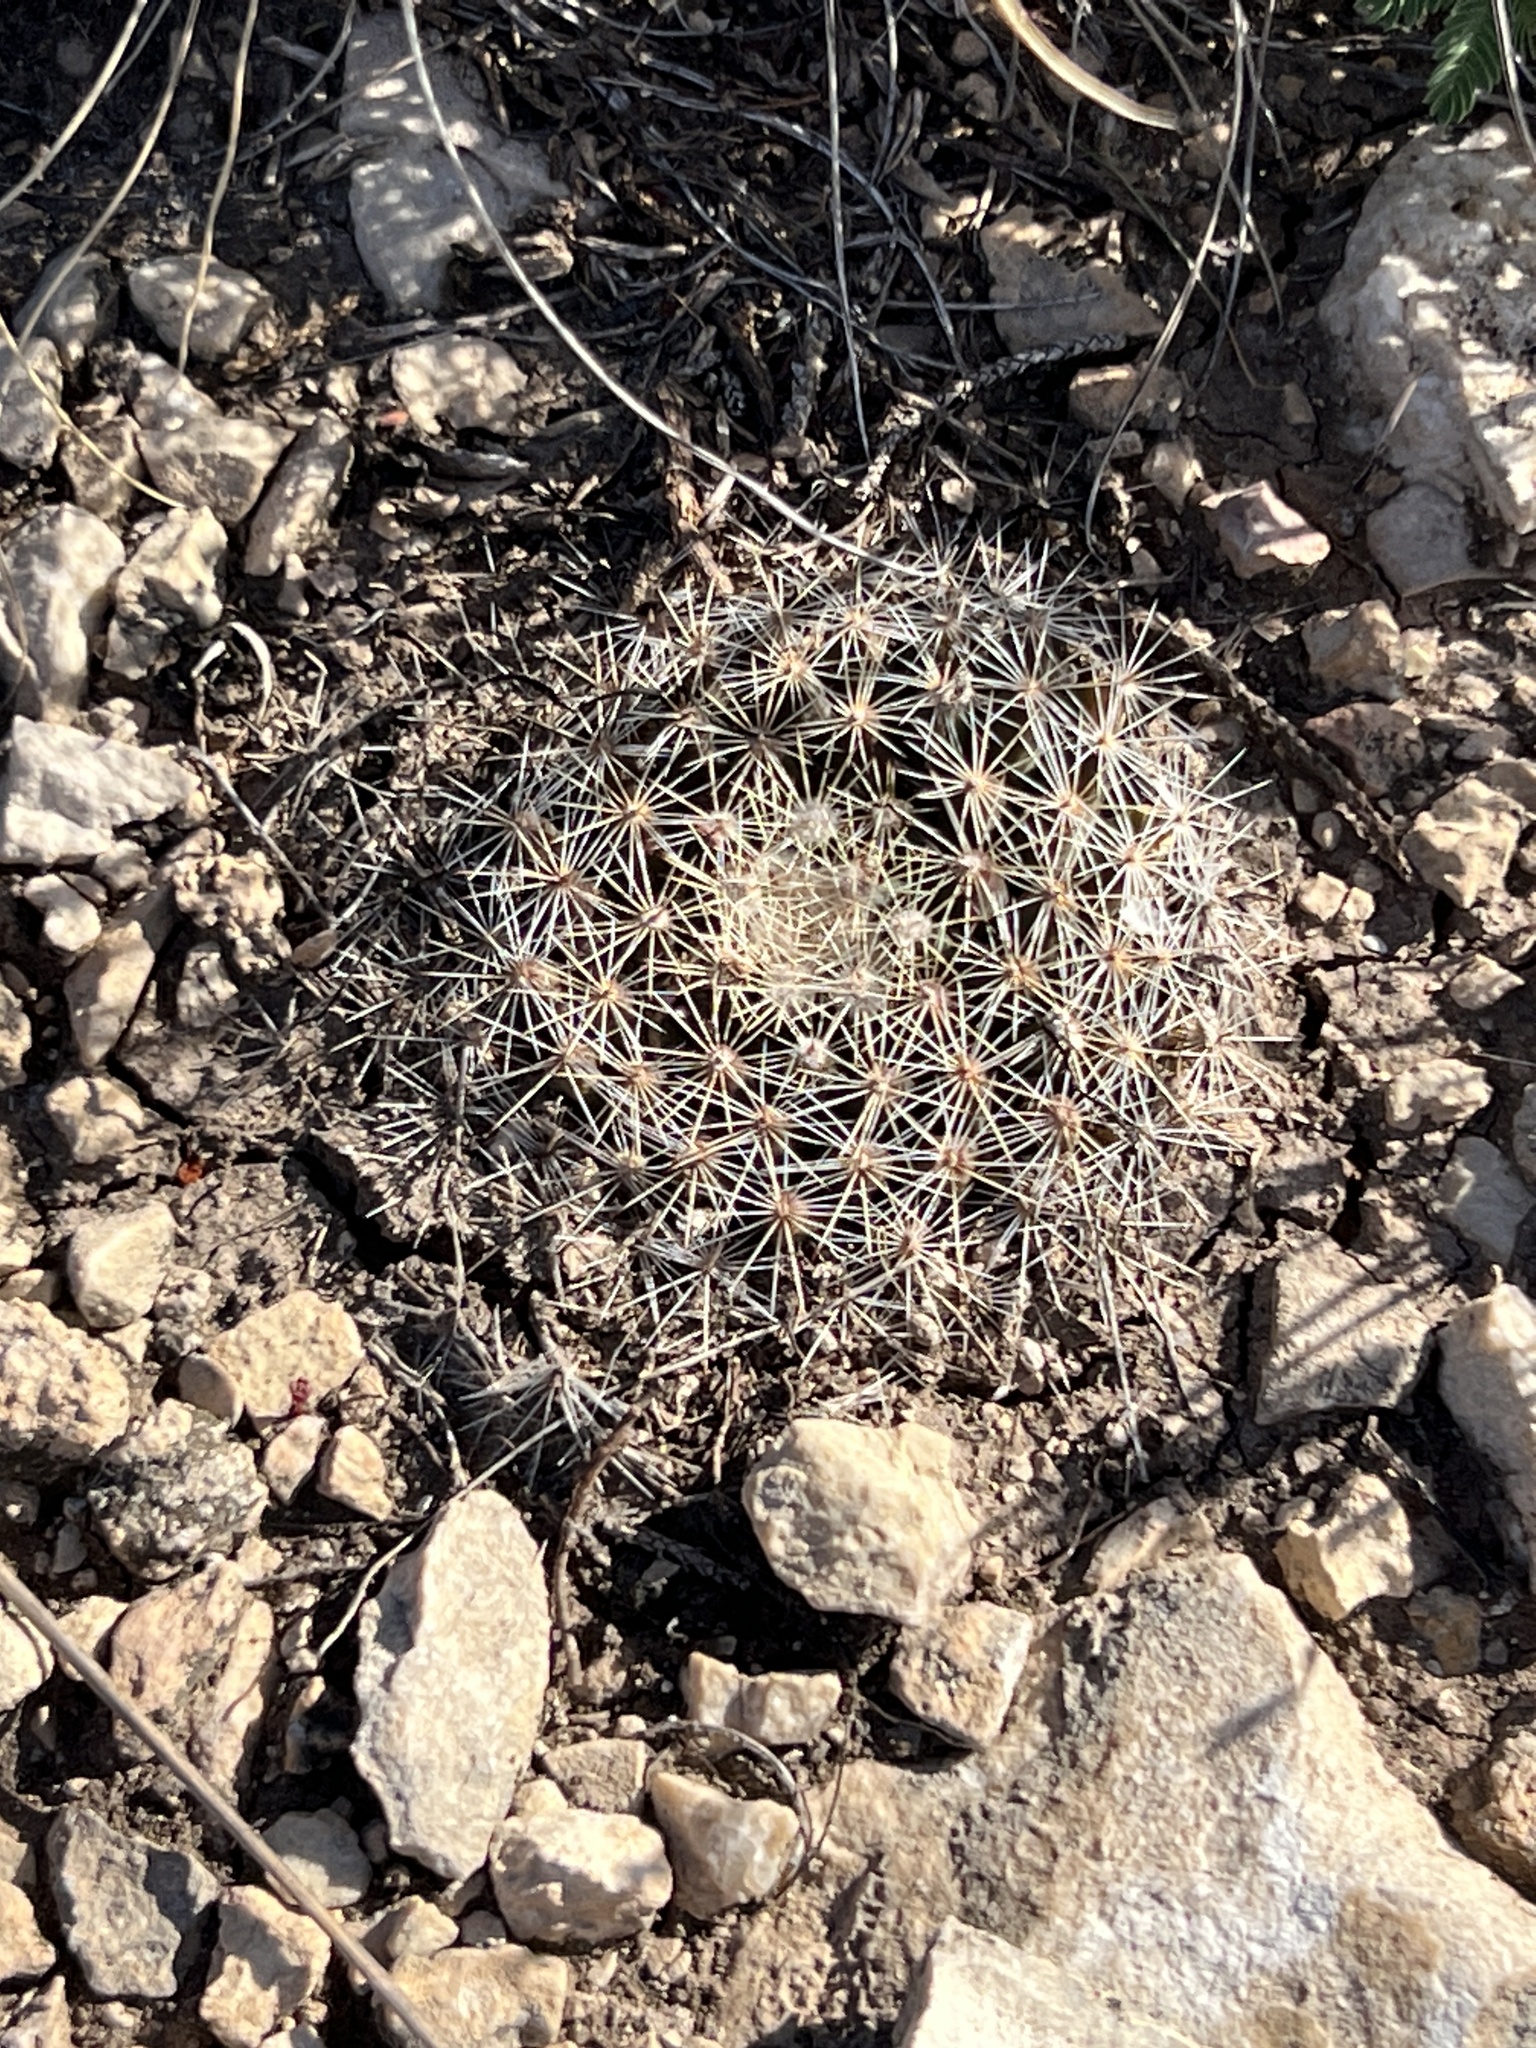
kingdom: Plantae
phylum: Tracheophyta
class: Magnoliopsida
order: Caryophyllales
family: Cactaceae
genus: Mammillaria
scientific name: Mammillaria heyderi
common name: Little nipple cactus
